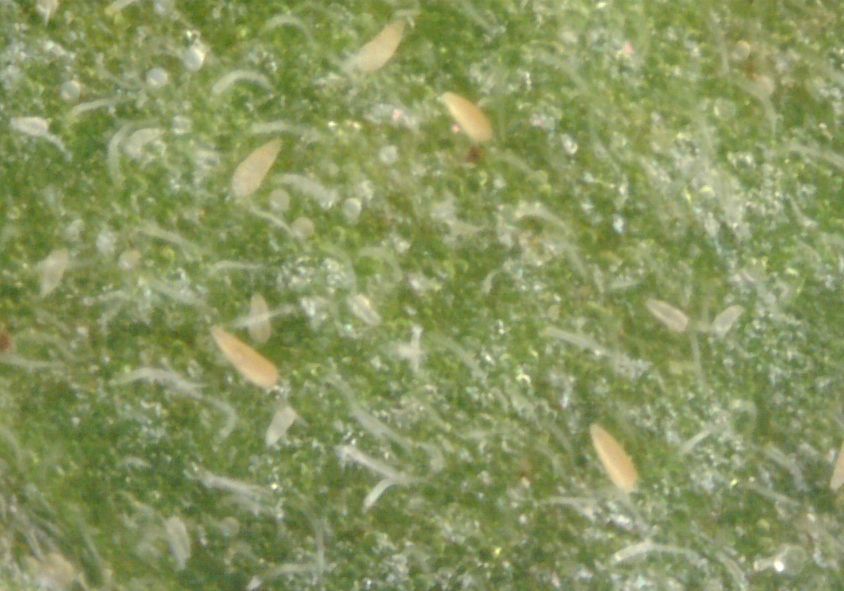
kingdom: Animalia
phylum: Arthropoda
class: Arachnida
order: Trombidiformes
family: Eriophyidae
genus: Tetra
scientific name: Tetra lycopersici
